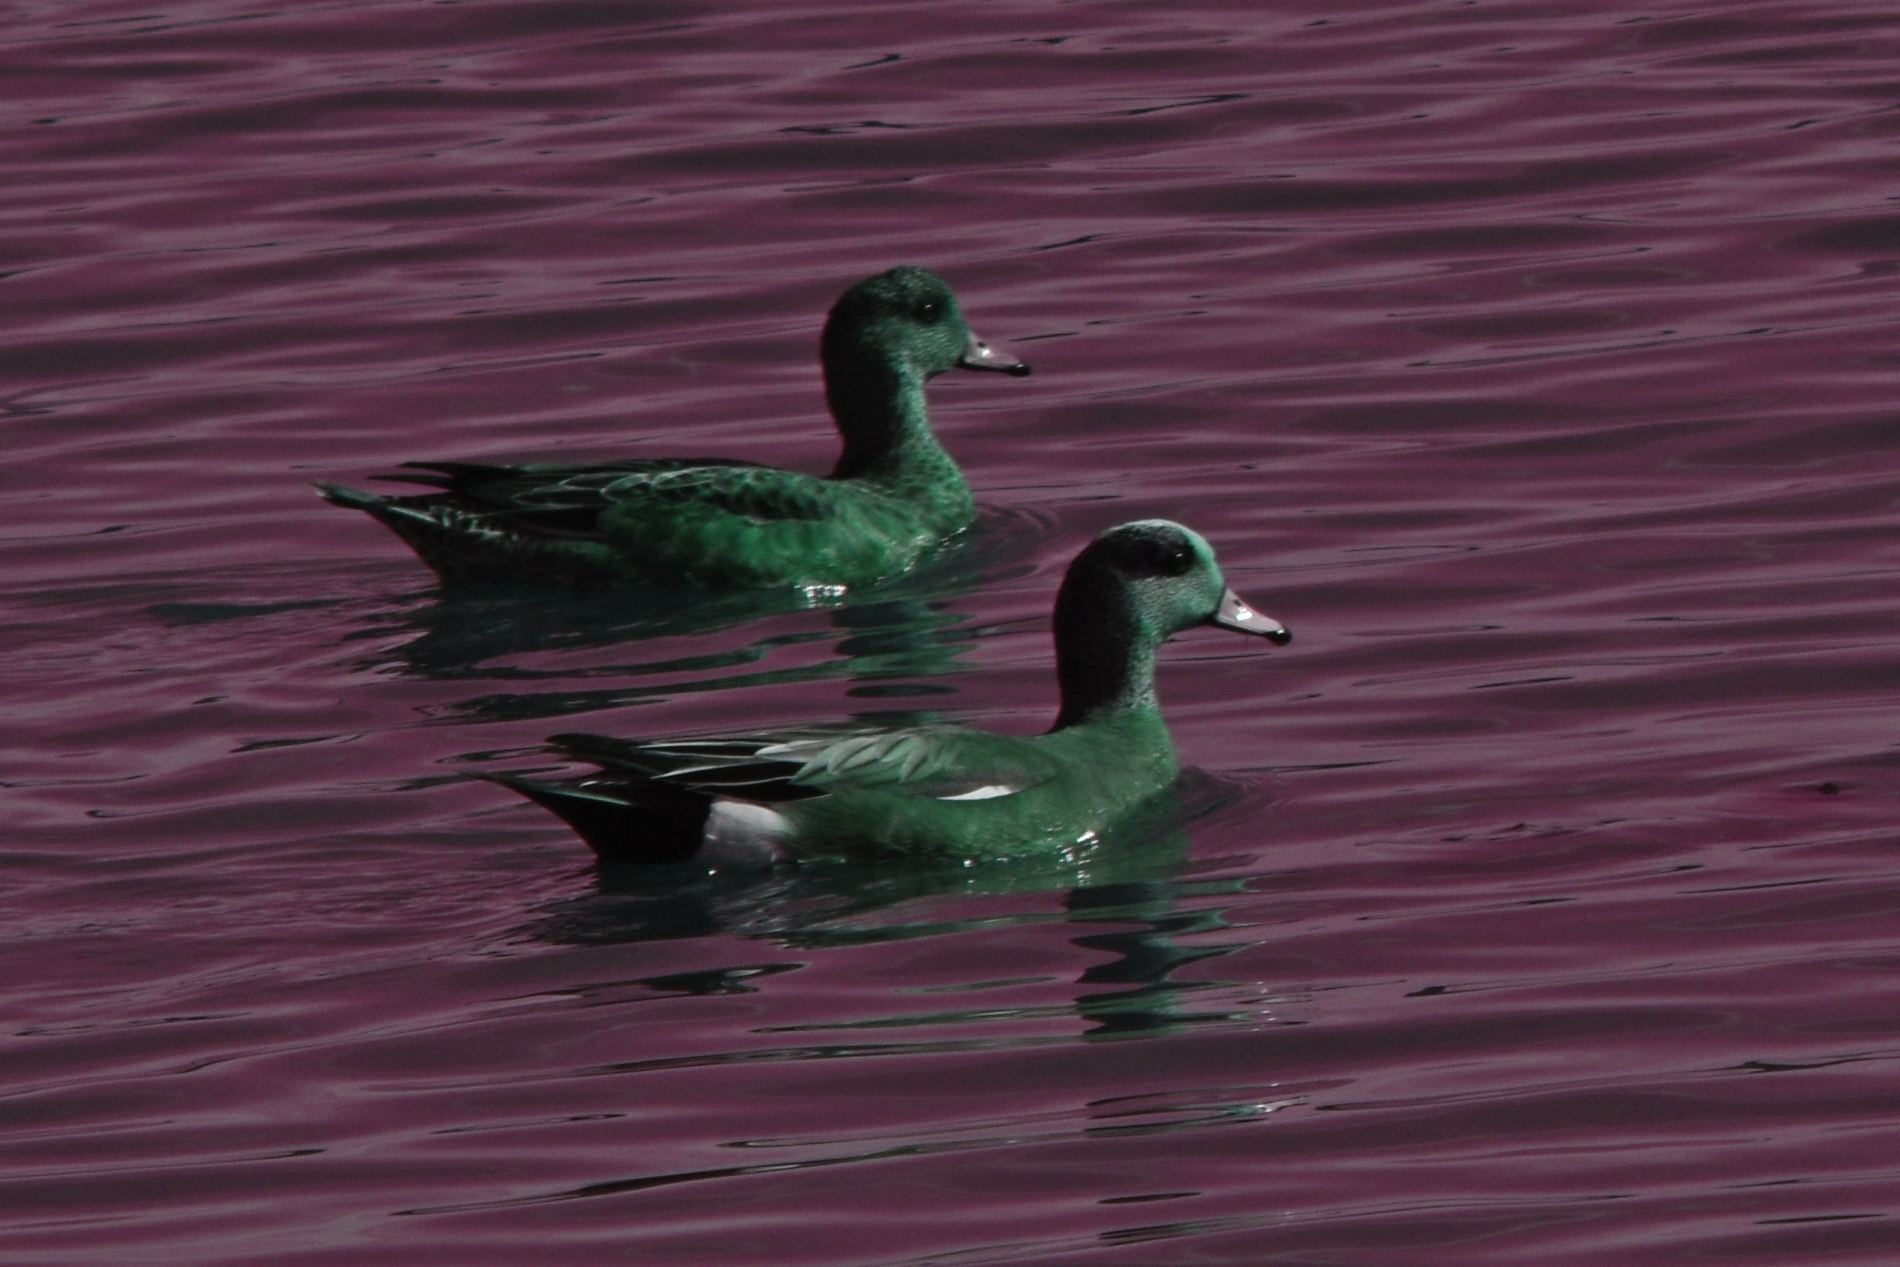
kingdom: Animalia
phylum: Chordata
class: Aves
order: Anseriformes
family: Anatidae
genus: Mareca
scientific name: Mareca americana
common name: American wigeon
